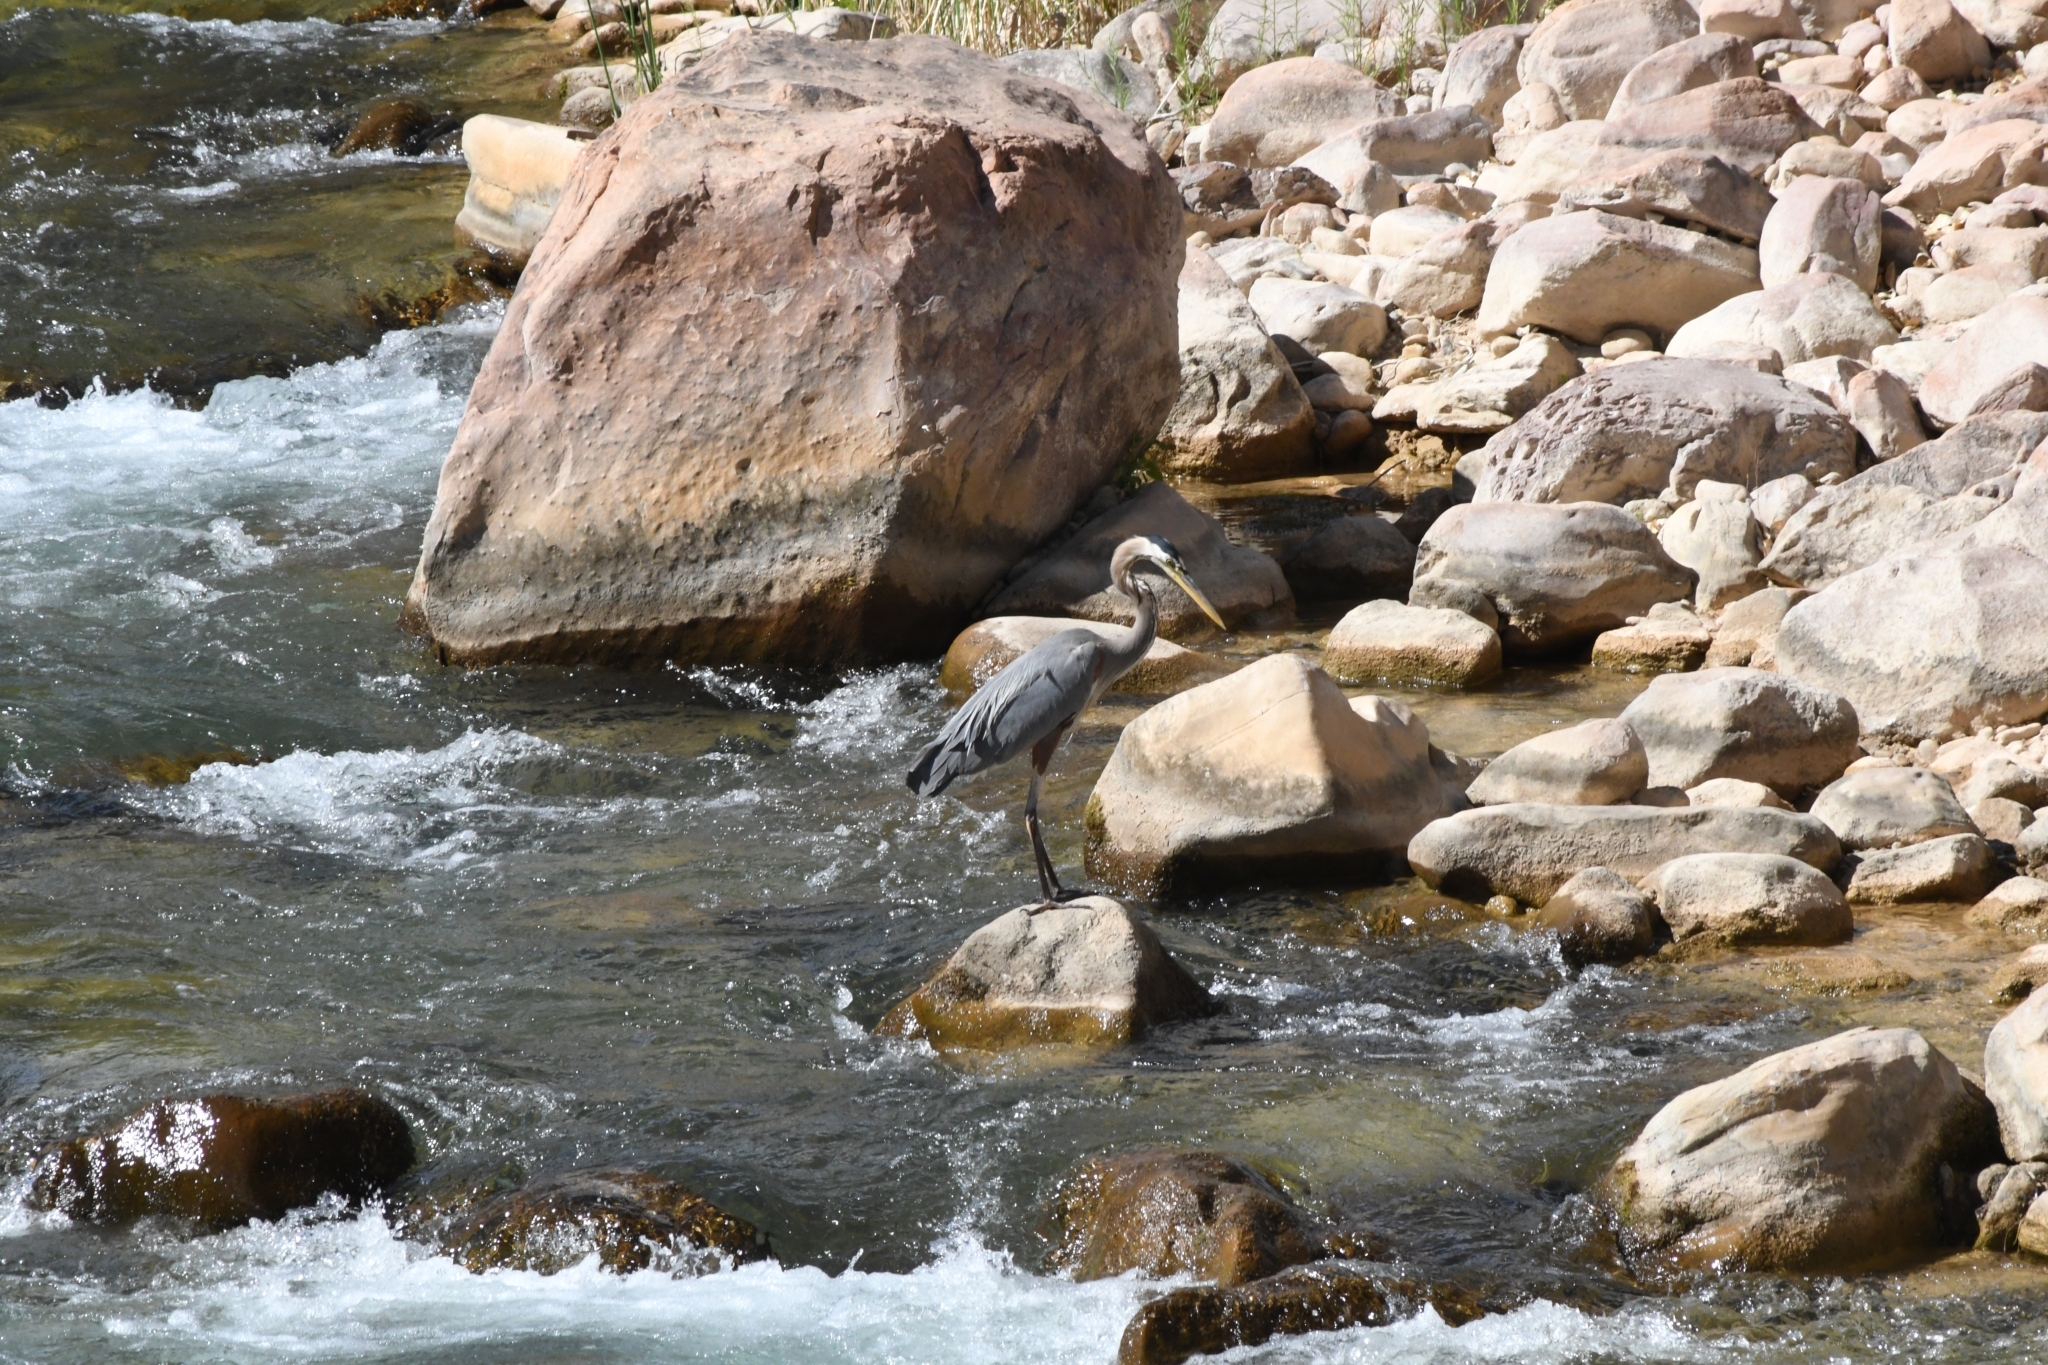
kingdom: Animalia
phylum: Chordata
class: Aves
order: Pelecaniformes
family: Ardeidae
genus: Ardea
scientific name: Ardea herodias
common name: Great blue heron
